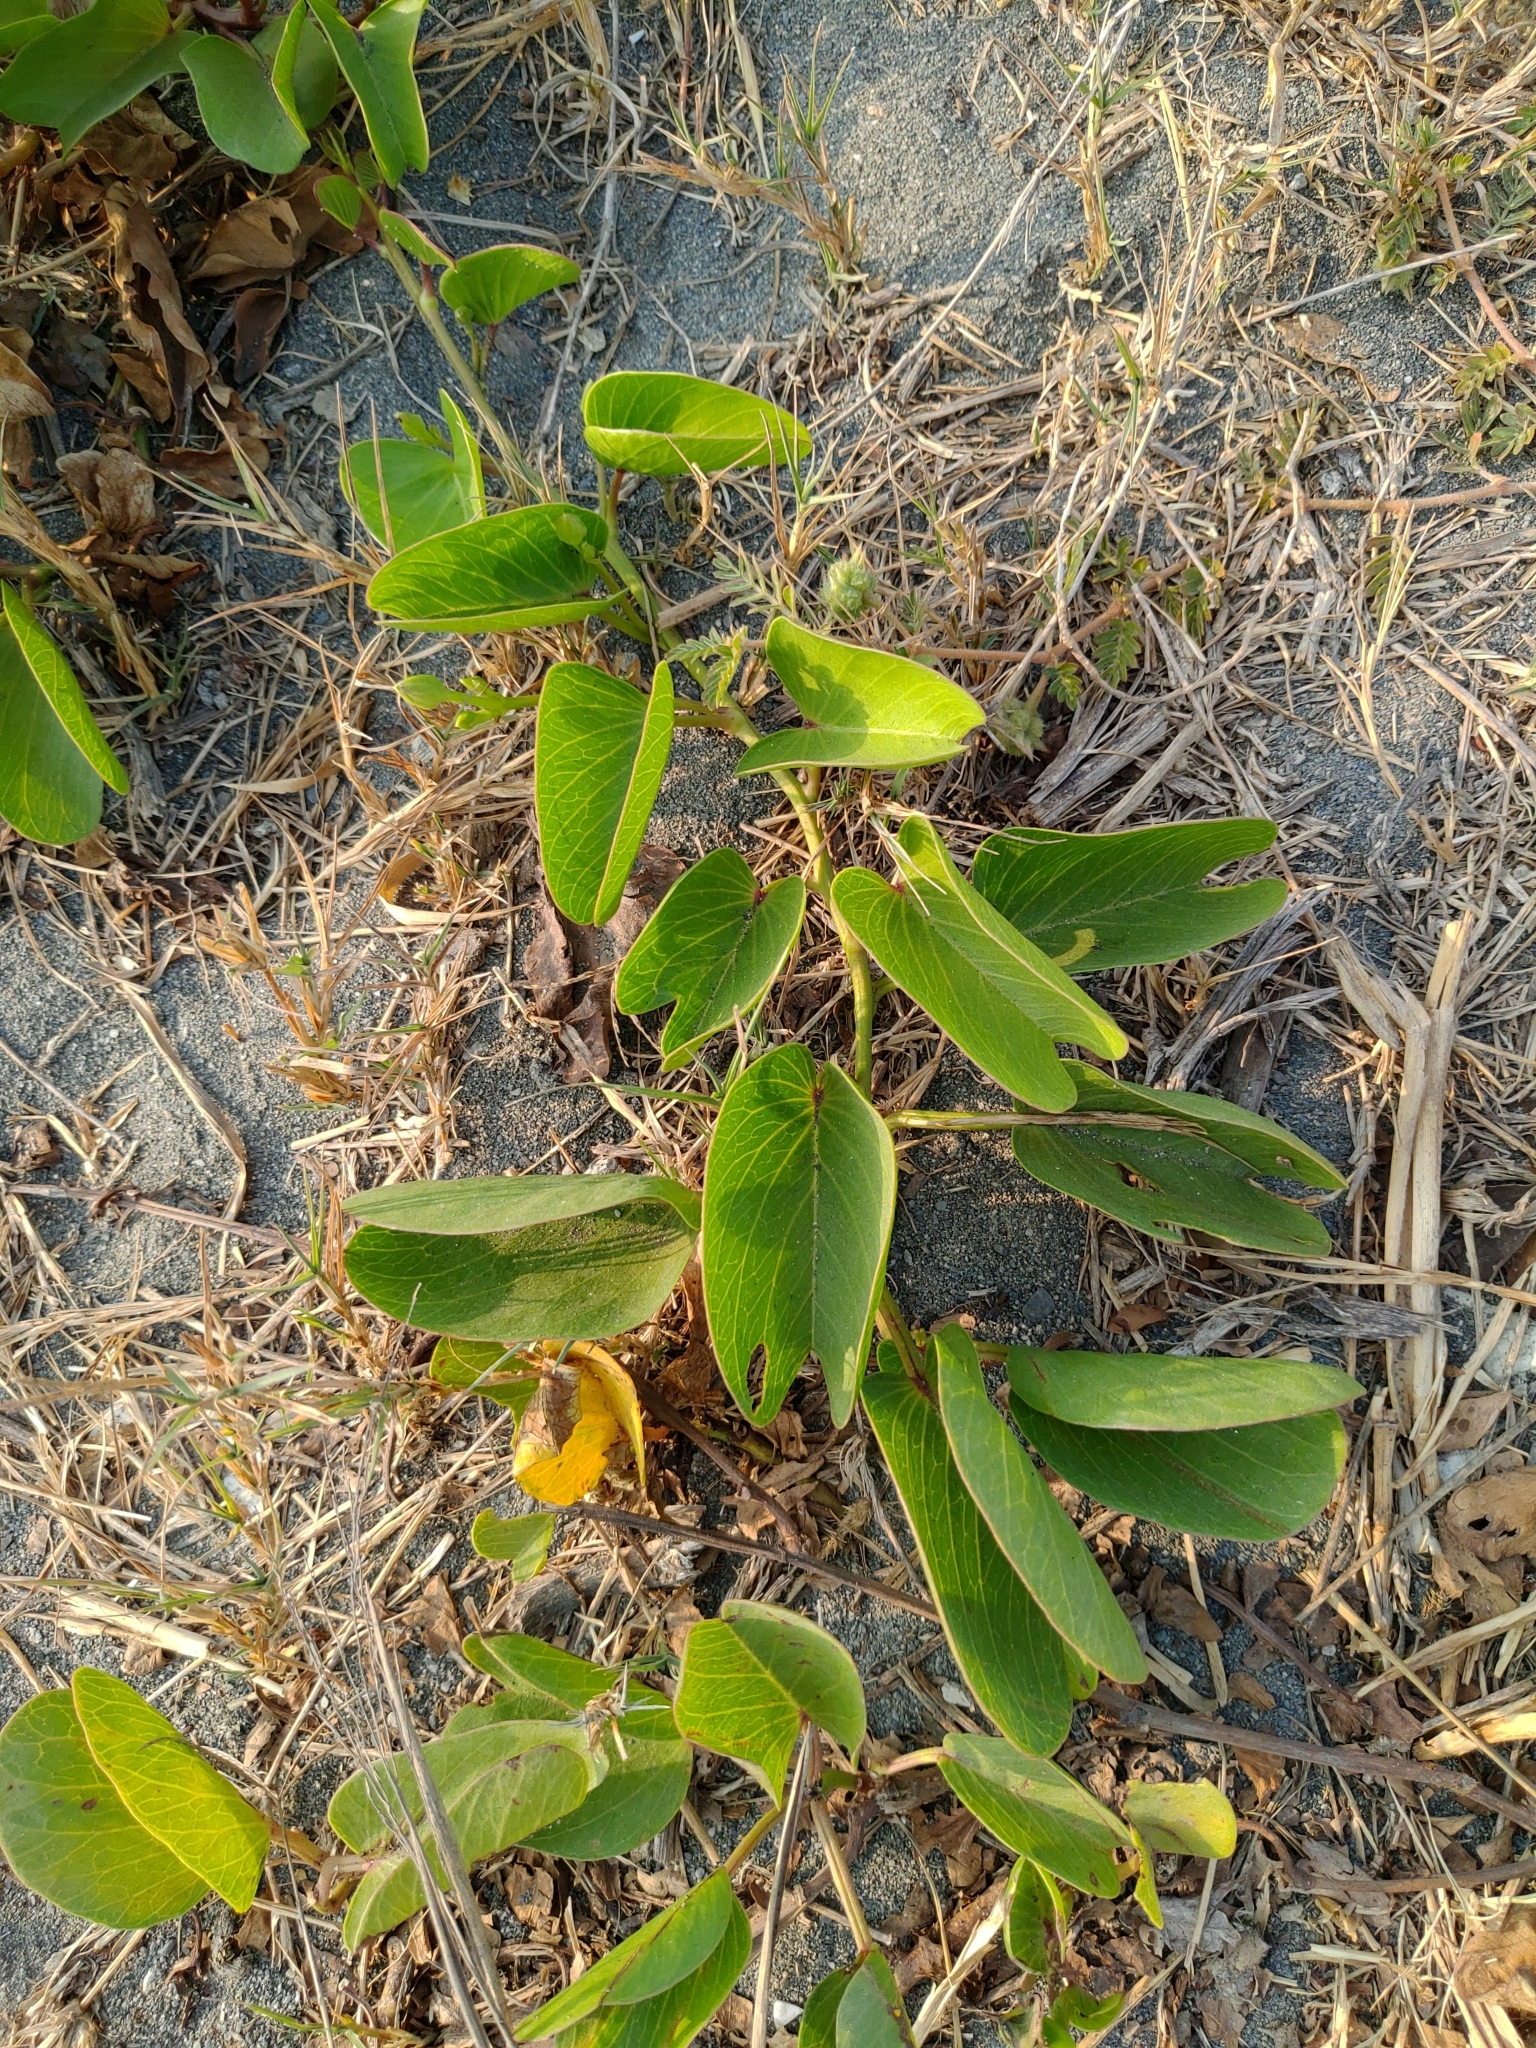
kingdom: Plantae
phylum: Tracheophyta
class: Magnoliopsida
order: Solanales
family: Convolvulaceae
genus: Ipomoea
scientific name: Ipomoea pes-caprae
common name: Beach morning glory
